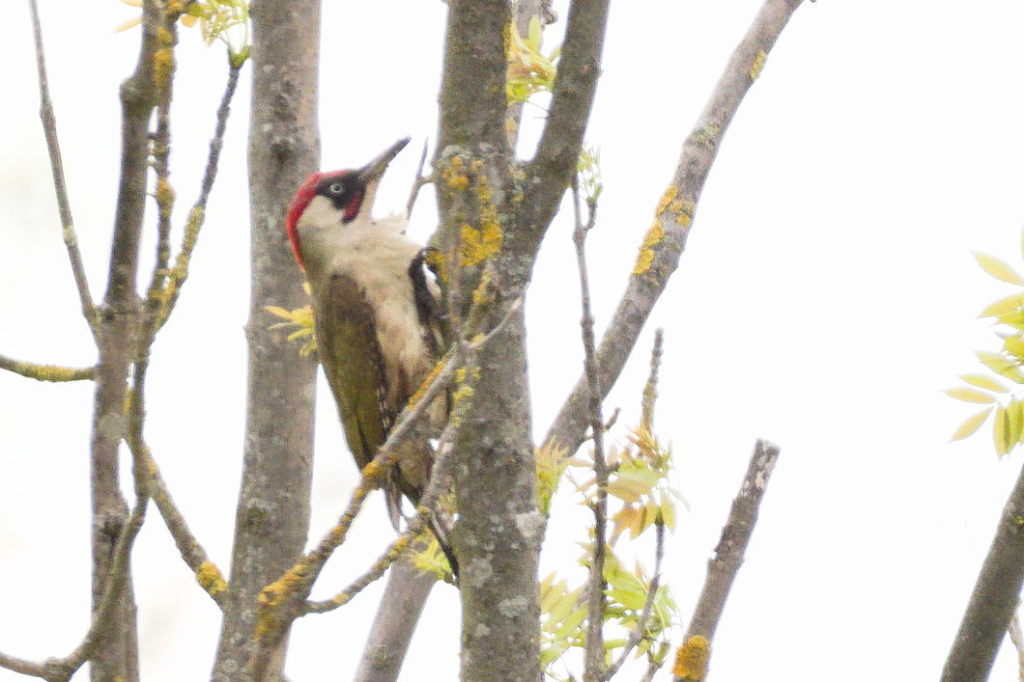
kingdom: Animalia
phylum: Chordata
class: Aves
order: Piciformes
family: Picidae
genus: Picus
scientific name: Picus viridis
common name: European green woodpecker
